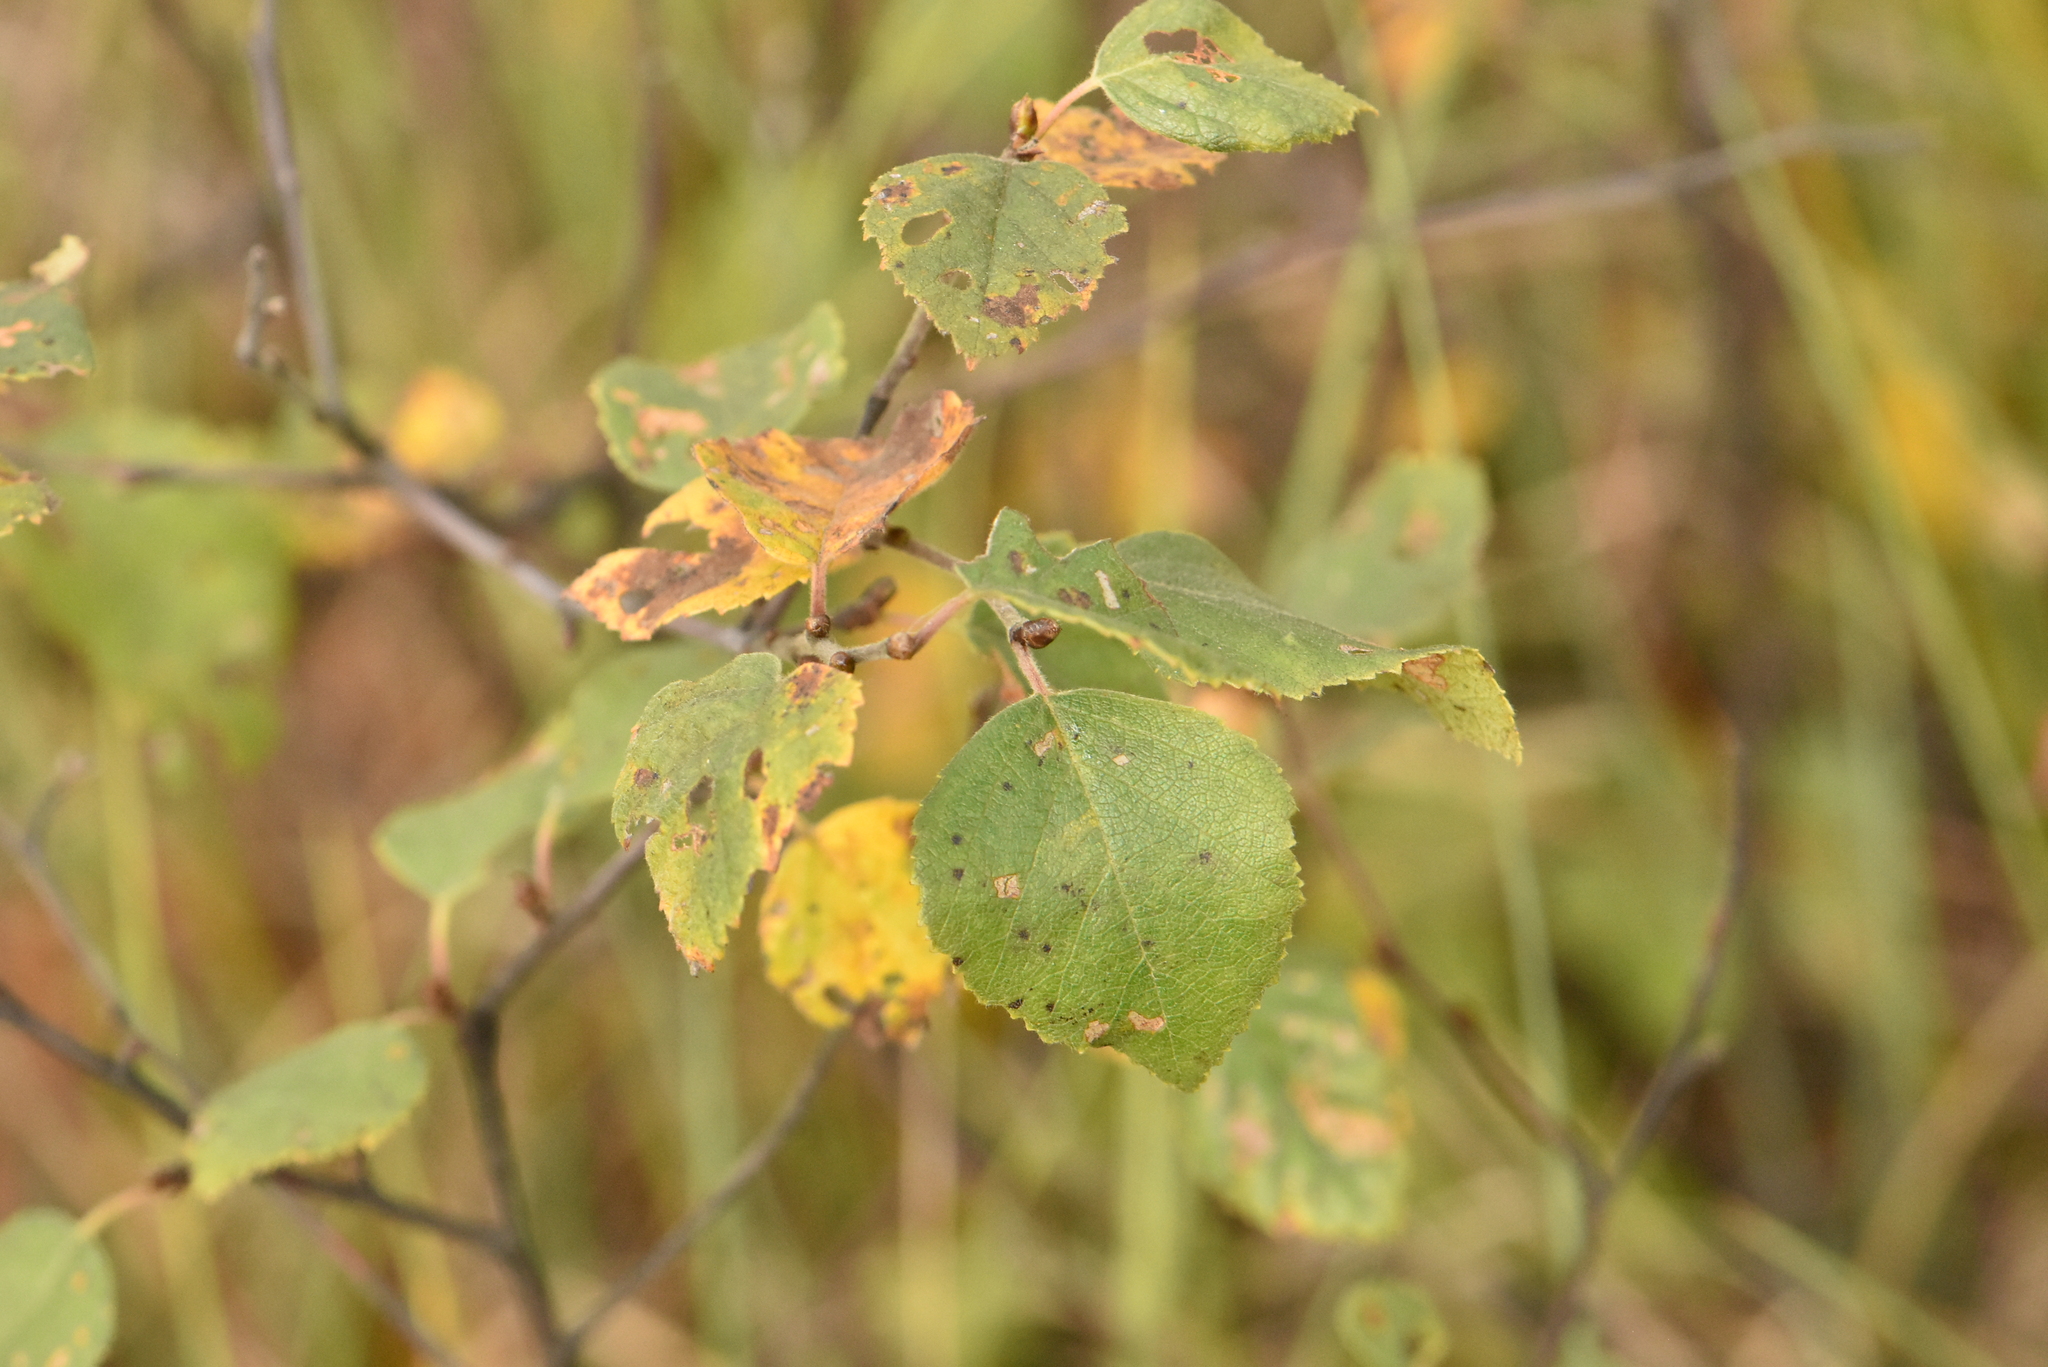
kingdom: Plantae
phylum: Tracheophyta
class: Magnoliopsida
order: Fagales
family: Betulaceae
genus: Betula
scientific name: Betula pubescens
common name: Downy birch
